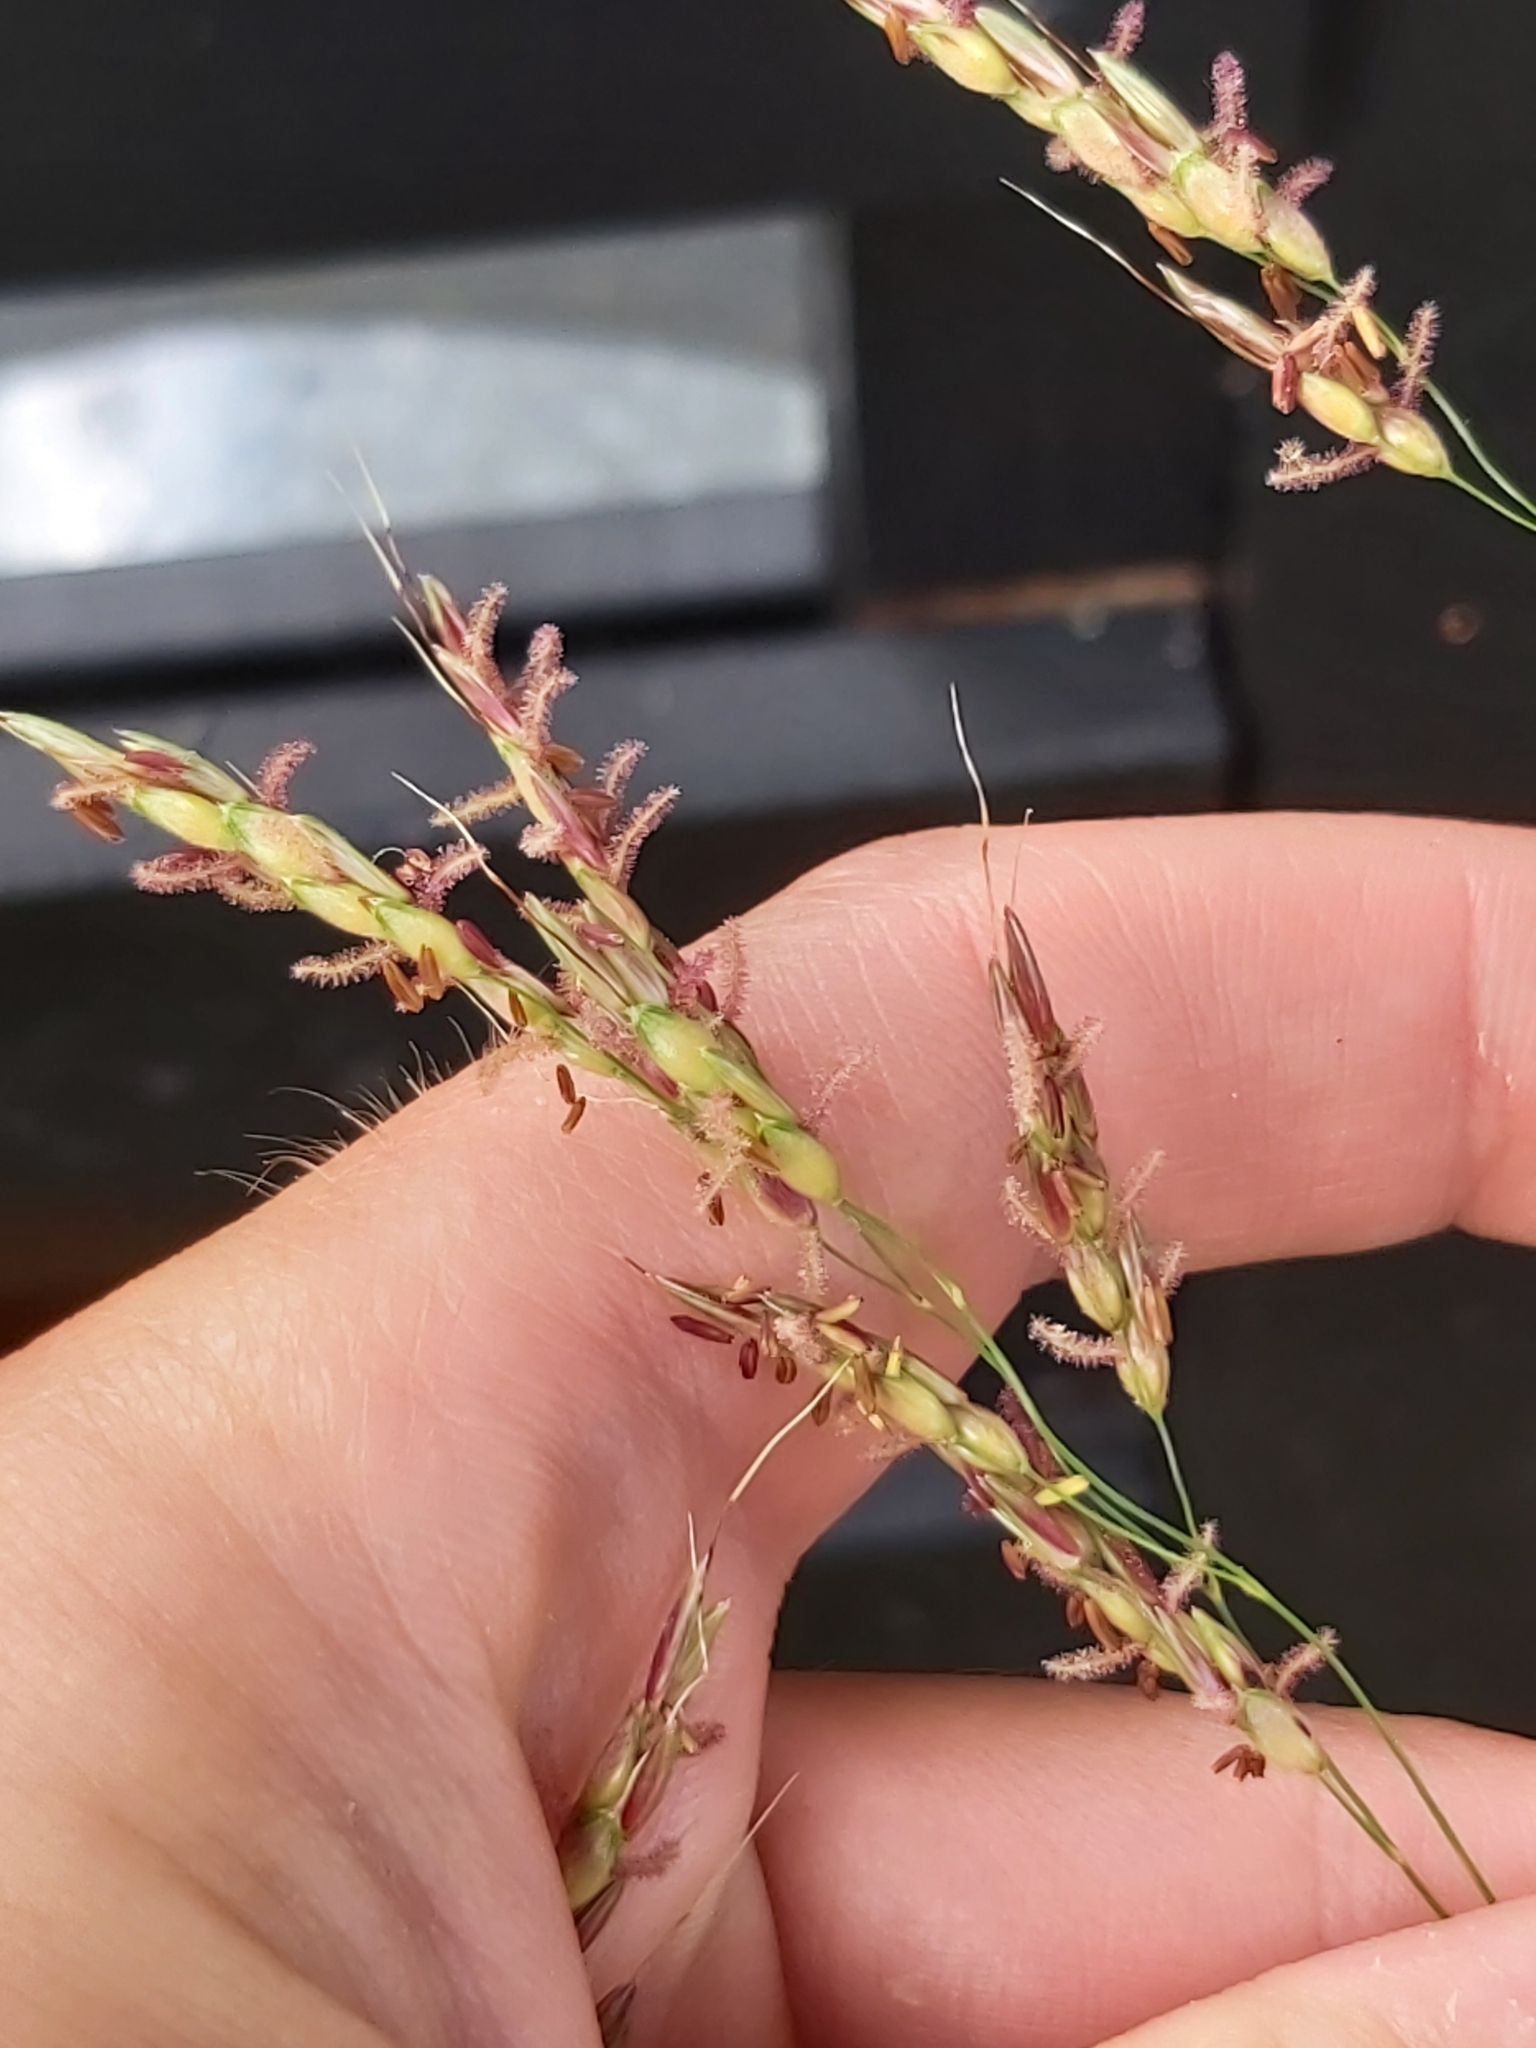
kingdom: Plantae
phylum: Tracheophyta
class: Liliopsida
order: Poales
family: Poaceae
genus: Sorghum
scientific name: Sorghum halepense
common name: Johnson-grass
